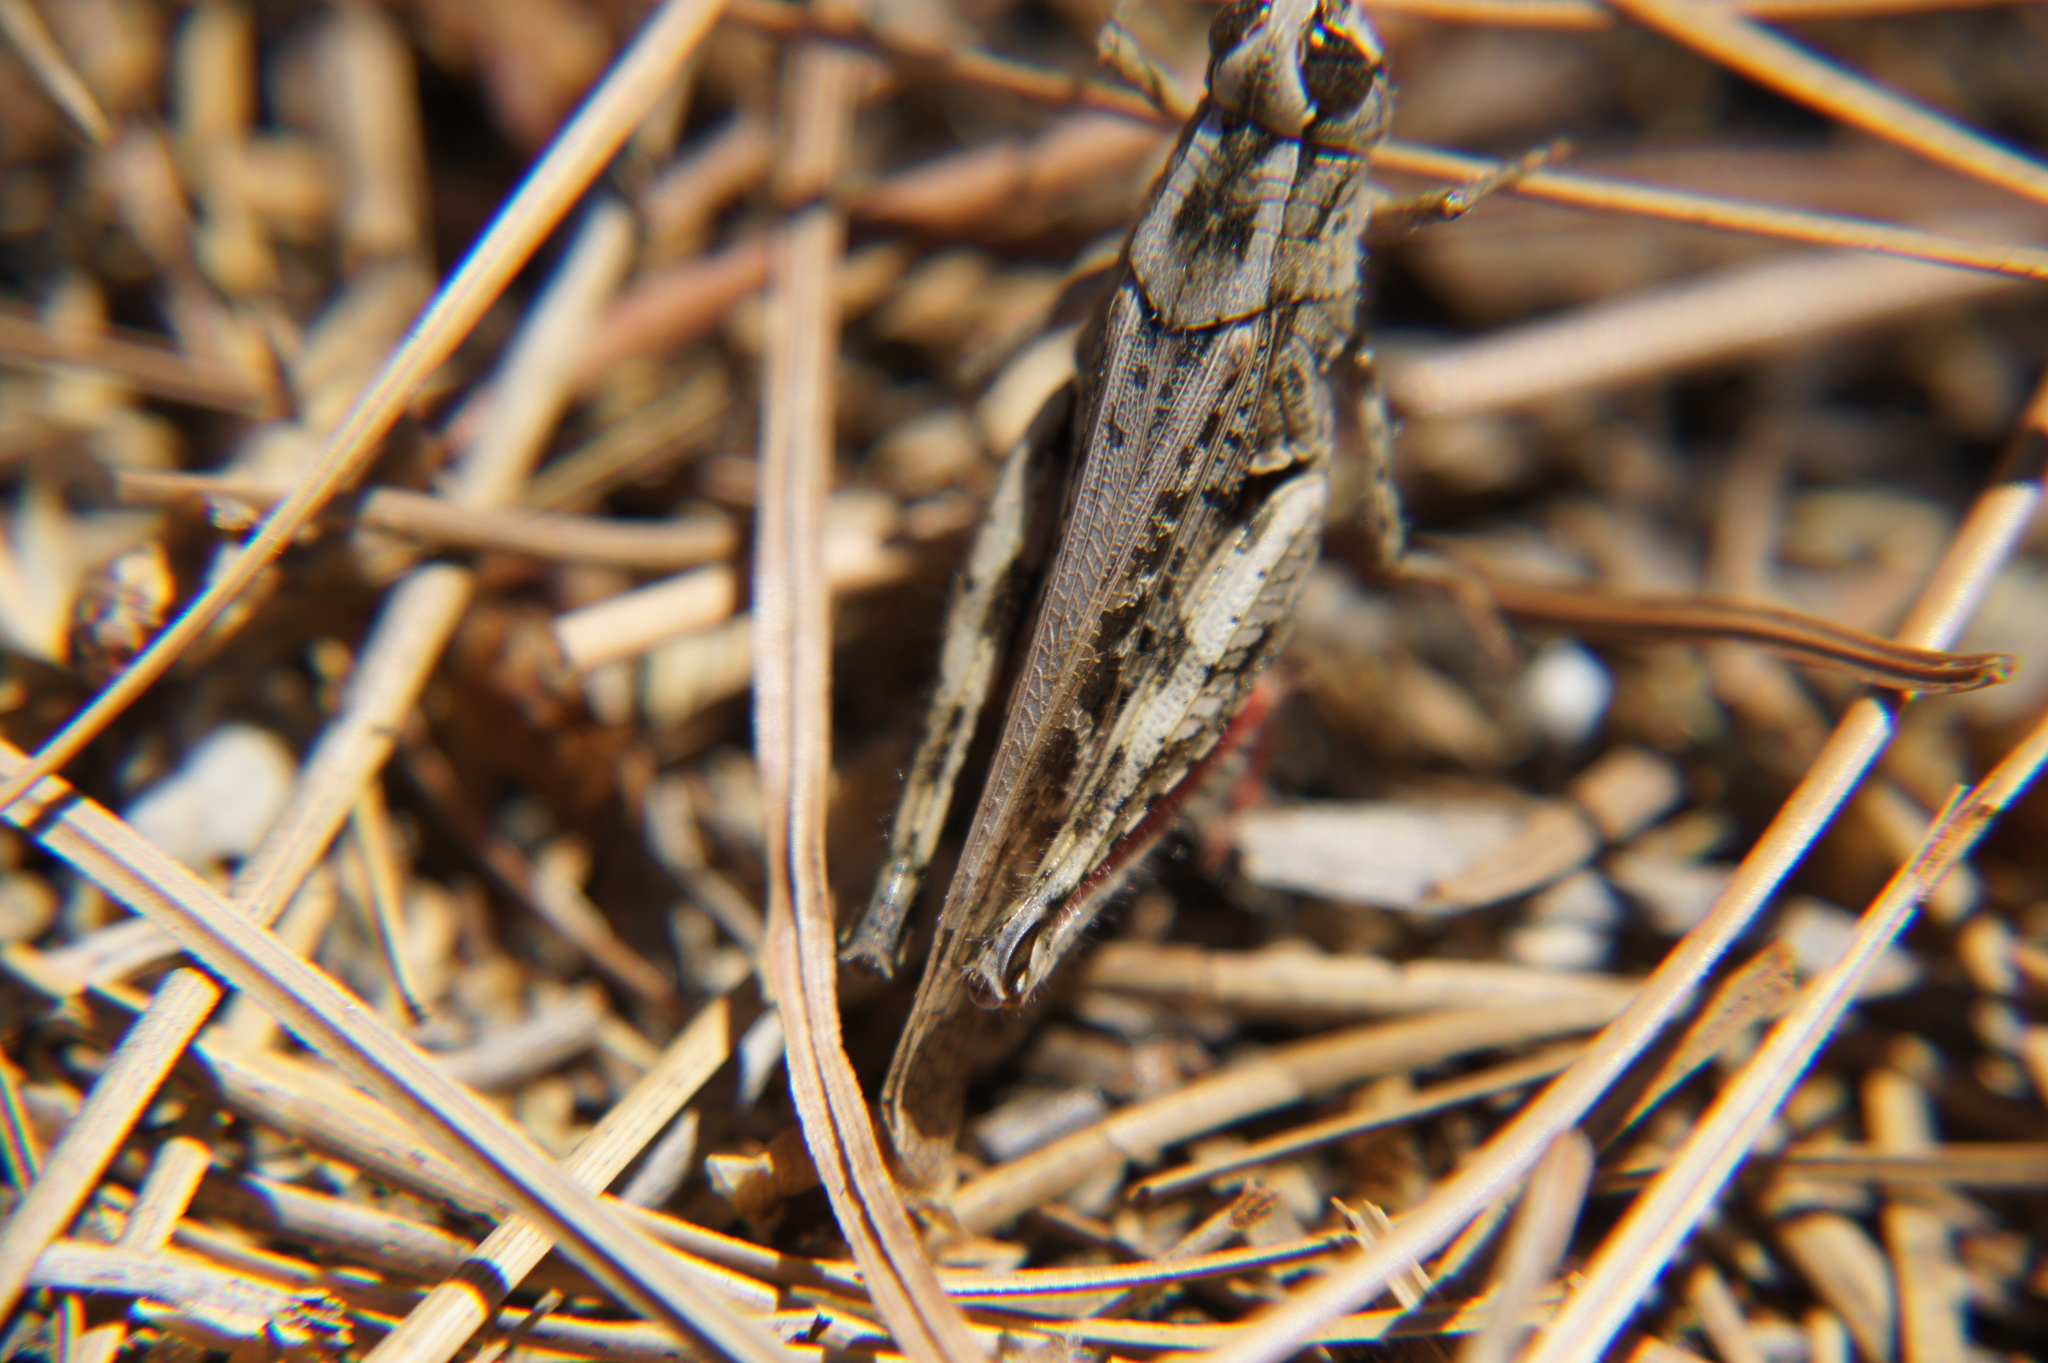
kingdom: Animalia
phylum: Arthropoda
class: Insecta
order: Orthoptera
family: Acrididae
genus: Calliptamus
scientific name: Calliptamus plebeius
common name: Canarian pincer grasshopper
